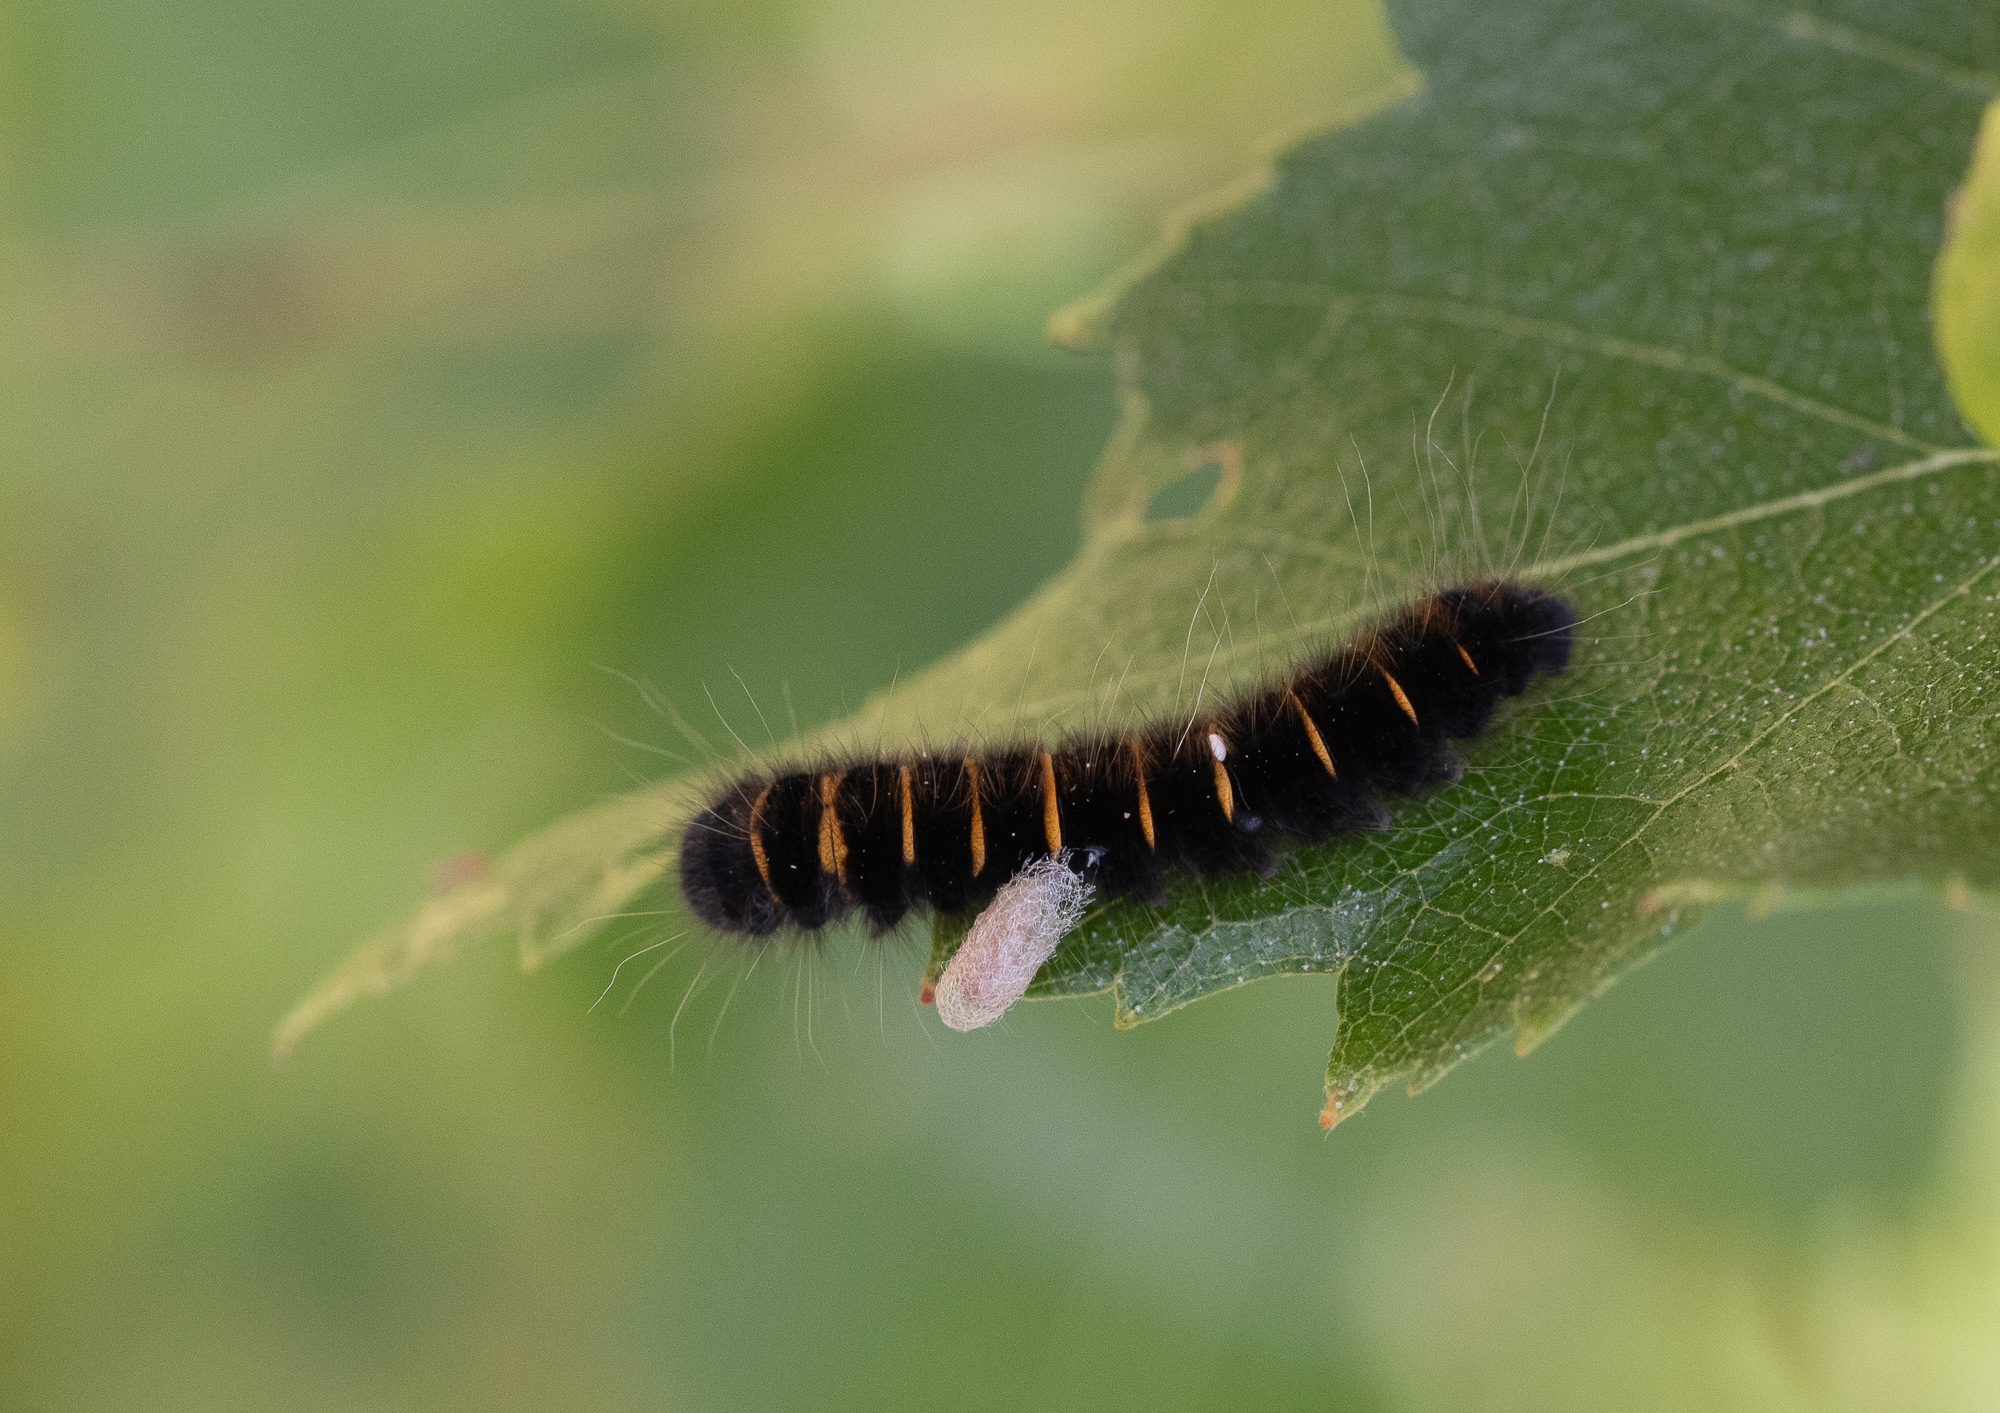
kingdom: Animalia
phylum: Arthropoda
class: Insecta
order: Lepidoptera
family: Lasiocampidae
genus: Macrothylacia
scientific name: Macrothylacia rubi
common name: Fox moth
